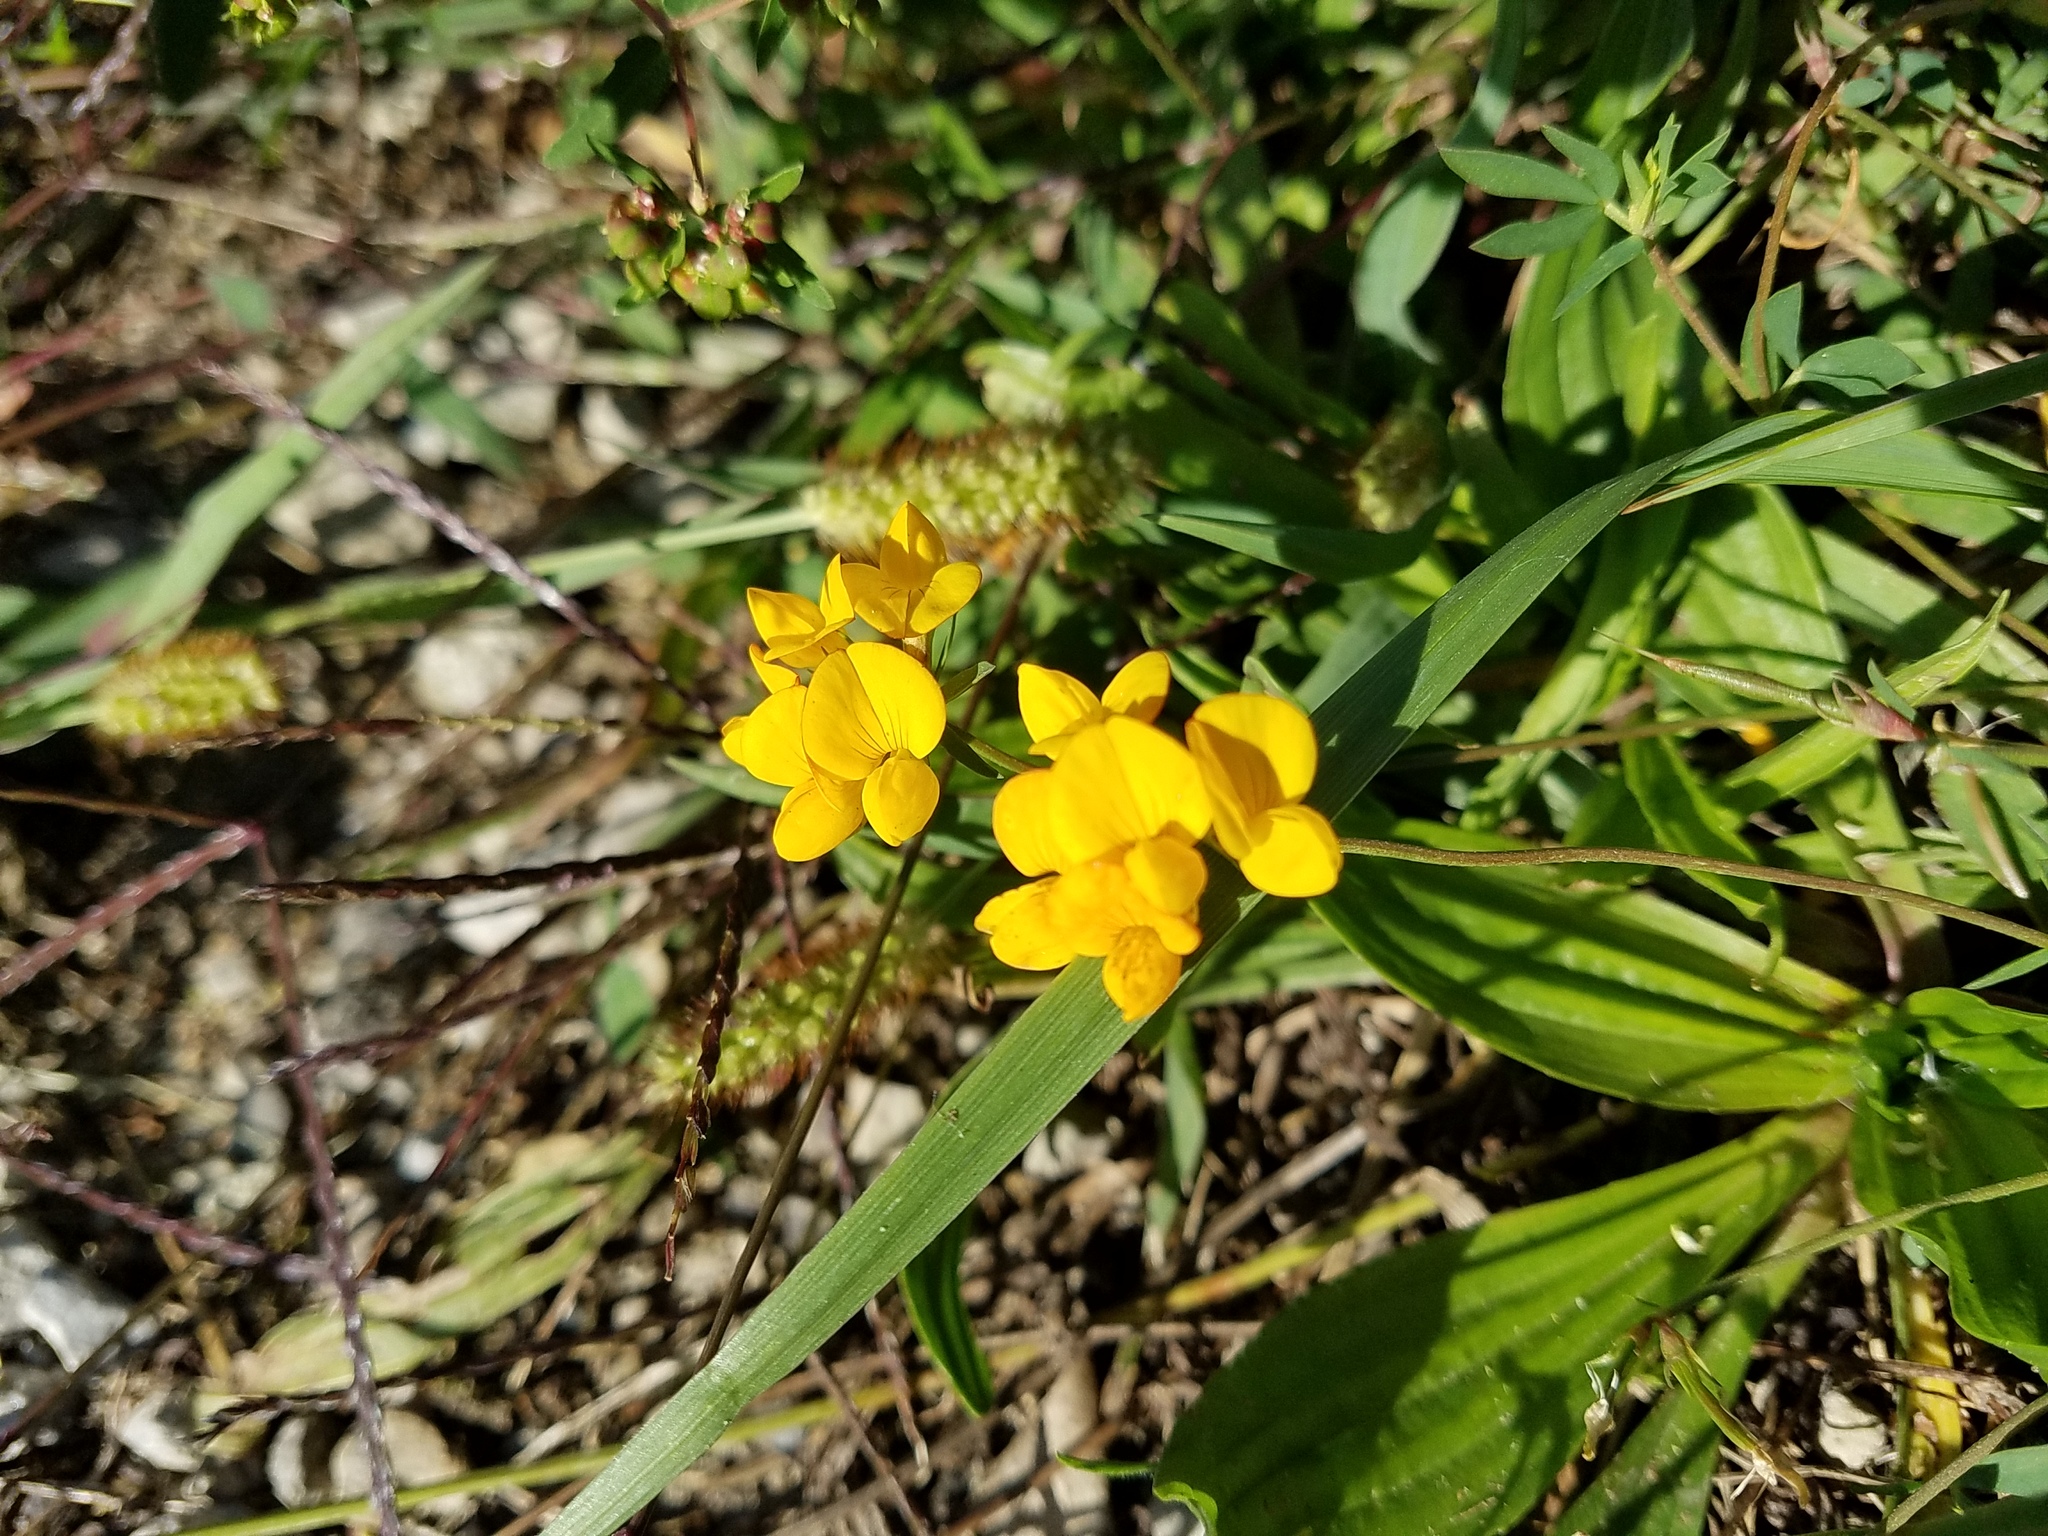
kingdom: Plantae
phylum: Tracheophyta
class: Magnoliopsida
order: Fabales
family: Fabaceae
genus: Lotus
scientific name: Lotus corniculatus
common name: Common bird's-foot-trefoil
